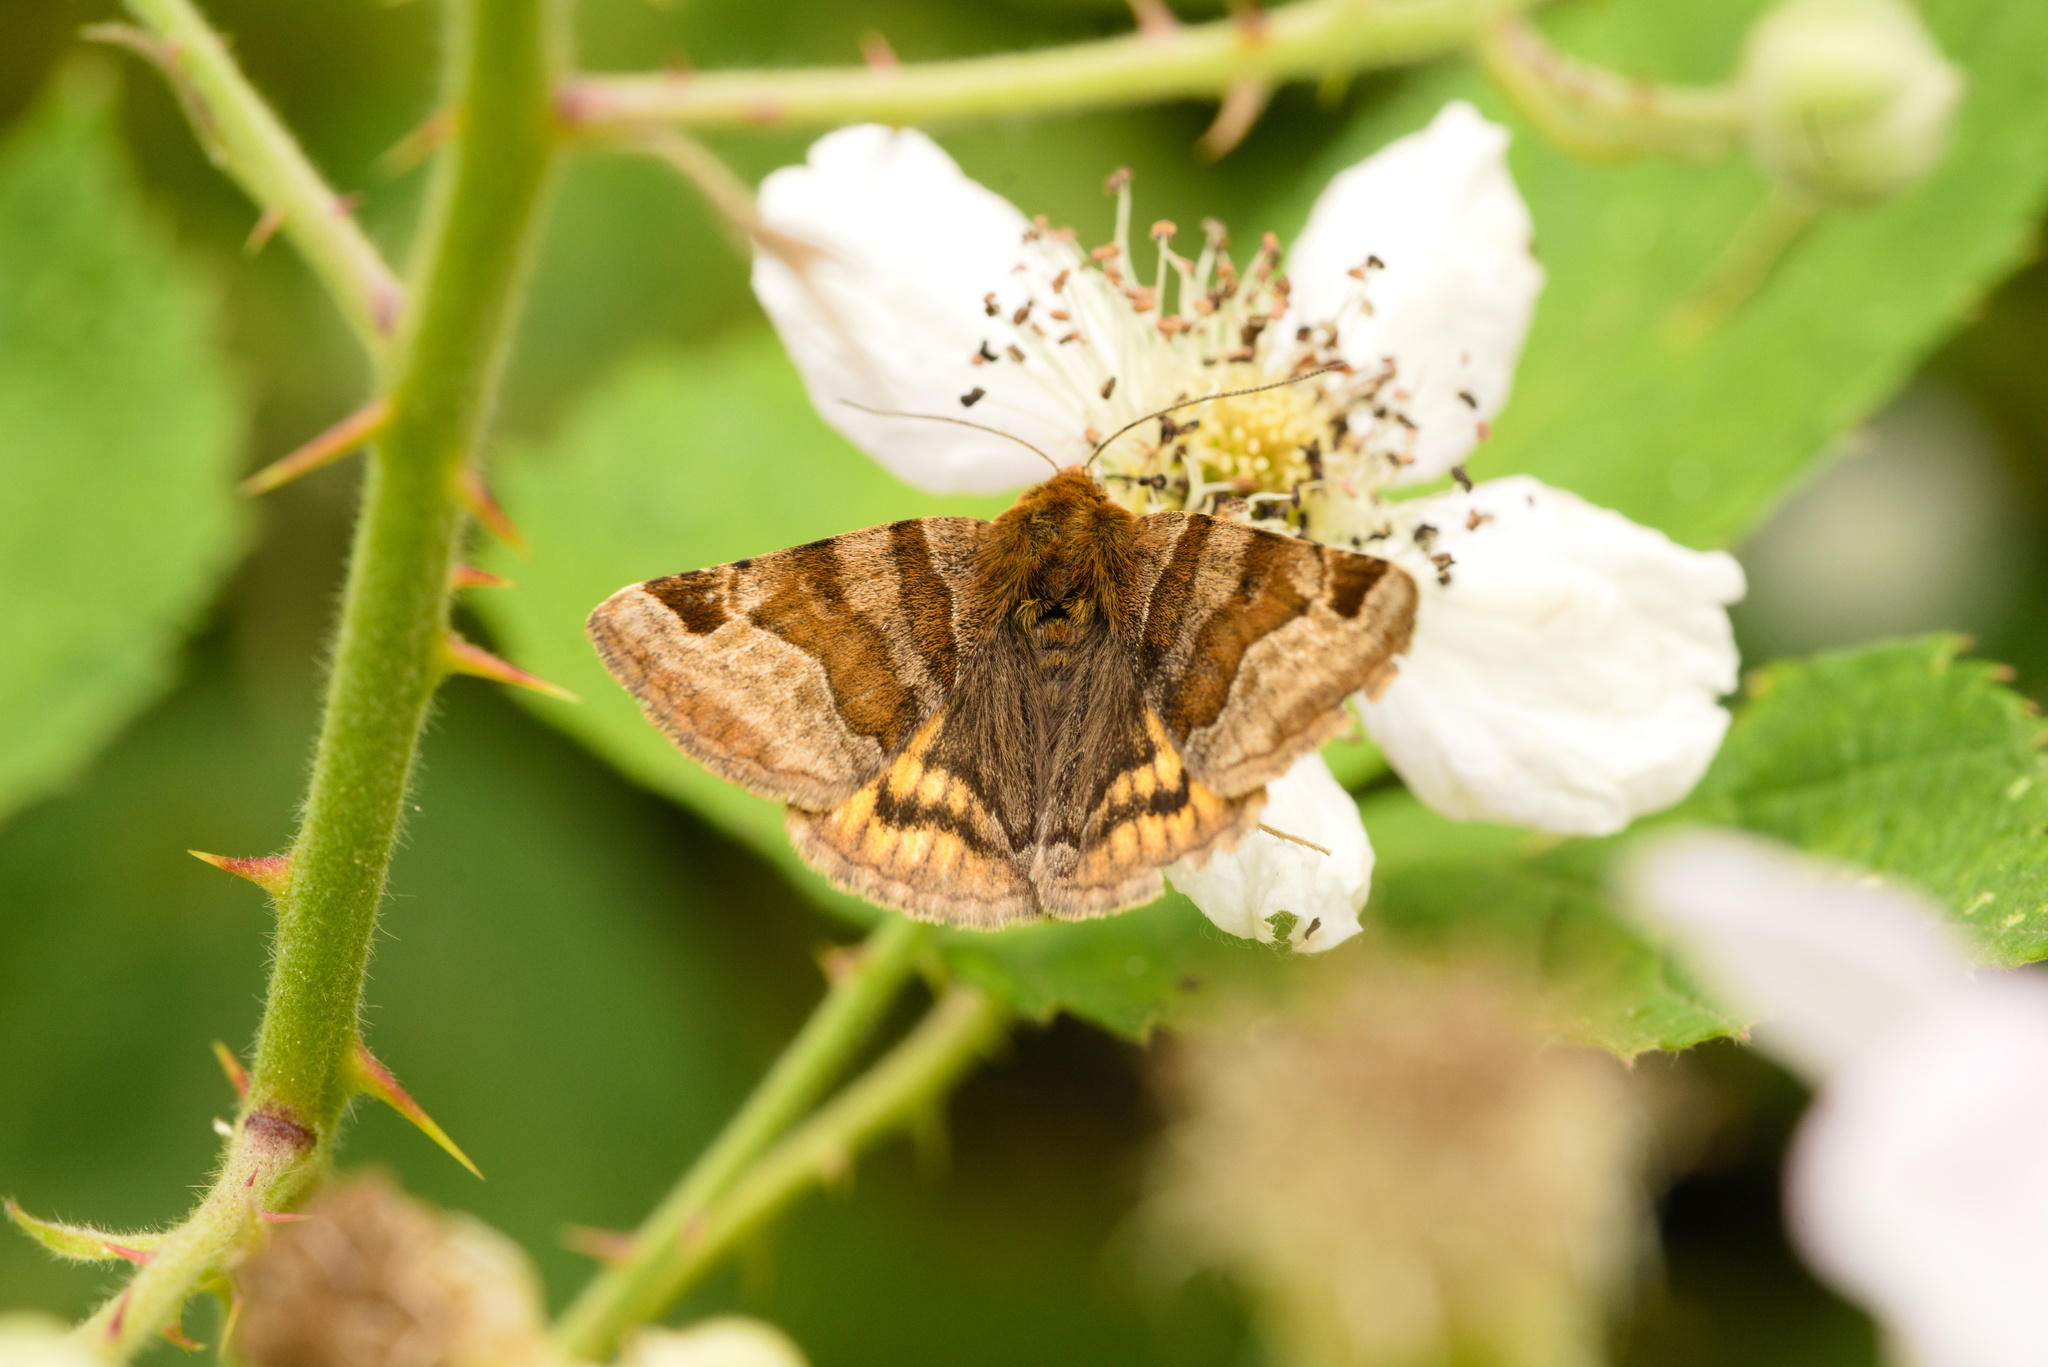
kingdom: Animalia
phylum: Arthropoda
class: Insecta
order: Lepidoptera
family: Erebidae
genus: Euclidia
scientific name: Euclidia glyphica
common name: Burnet companion
